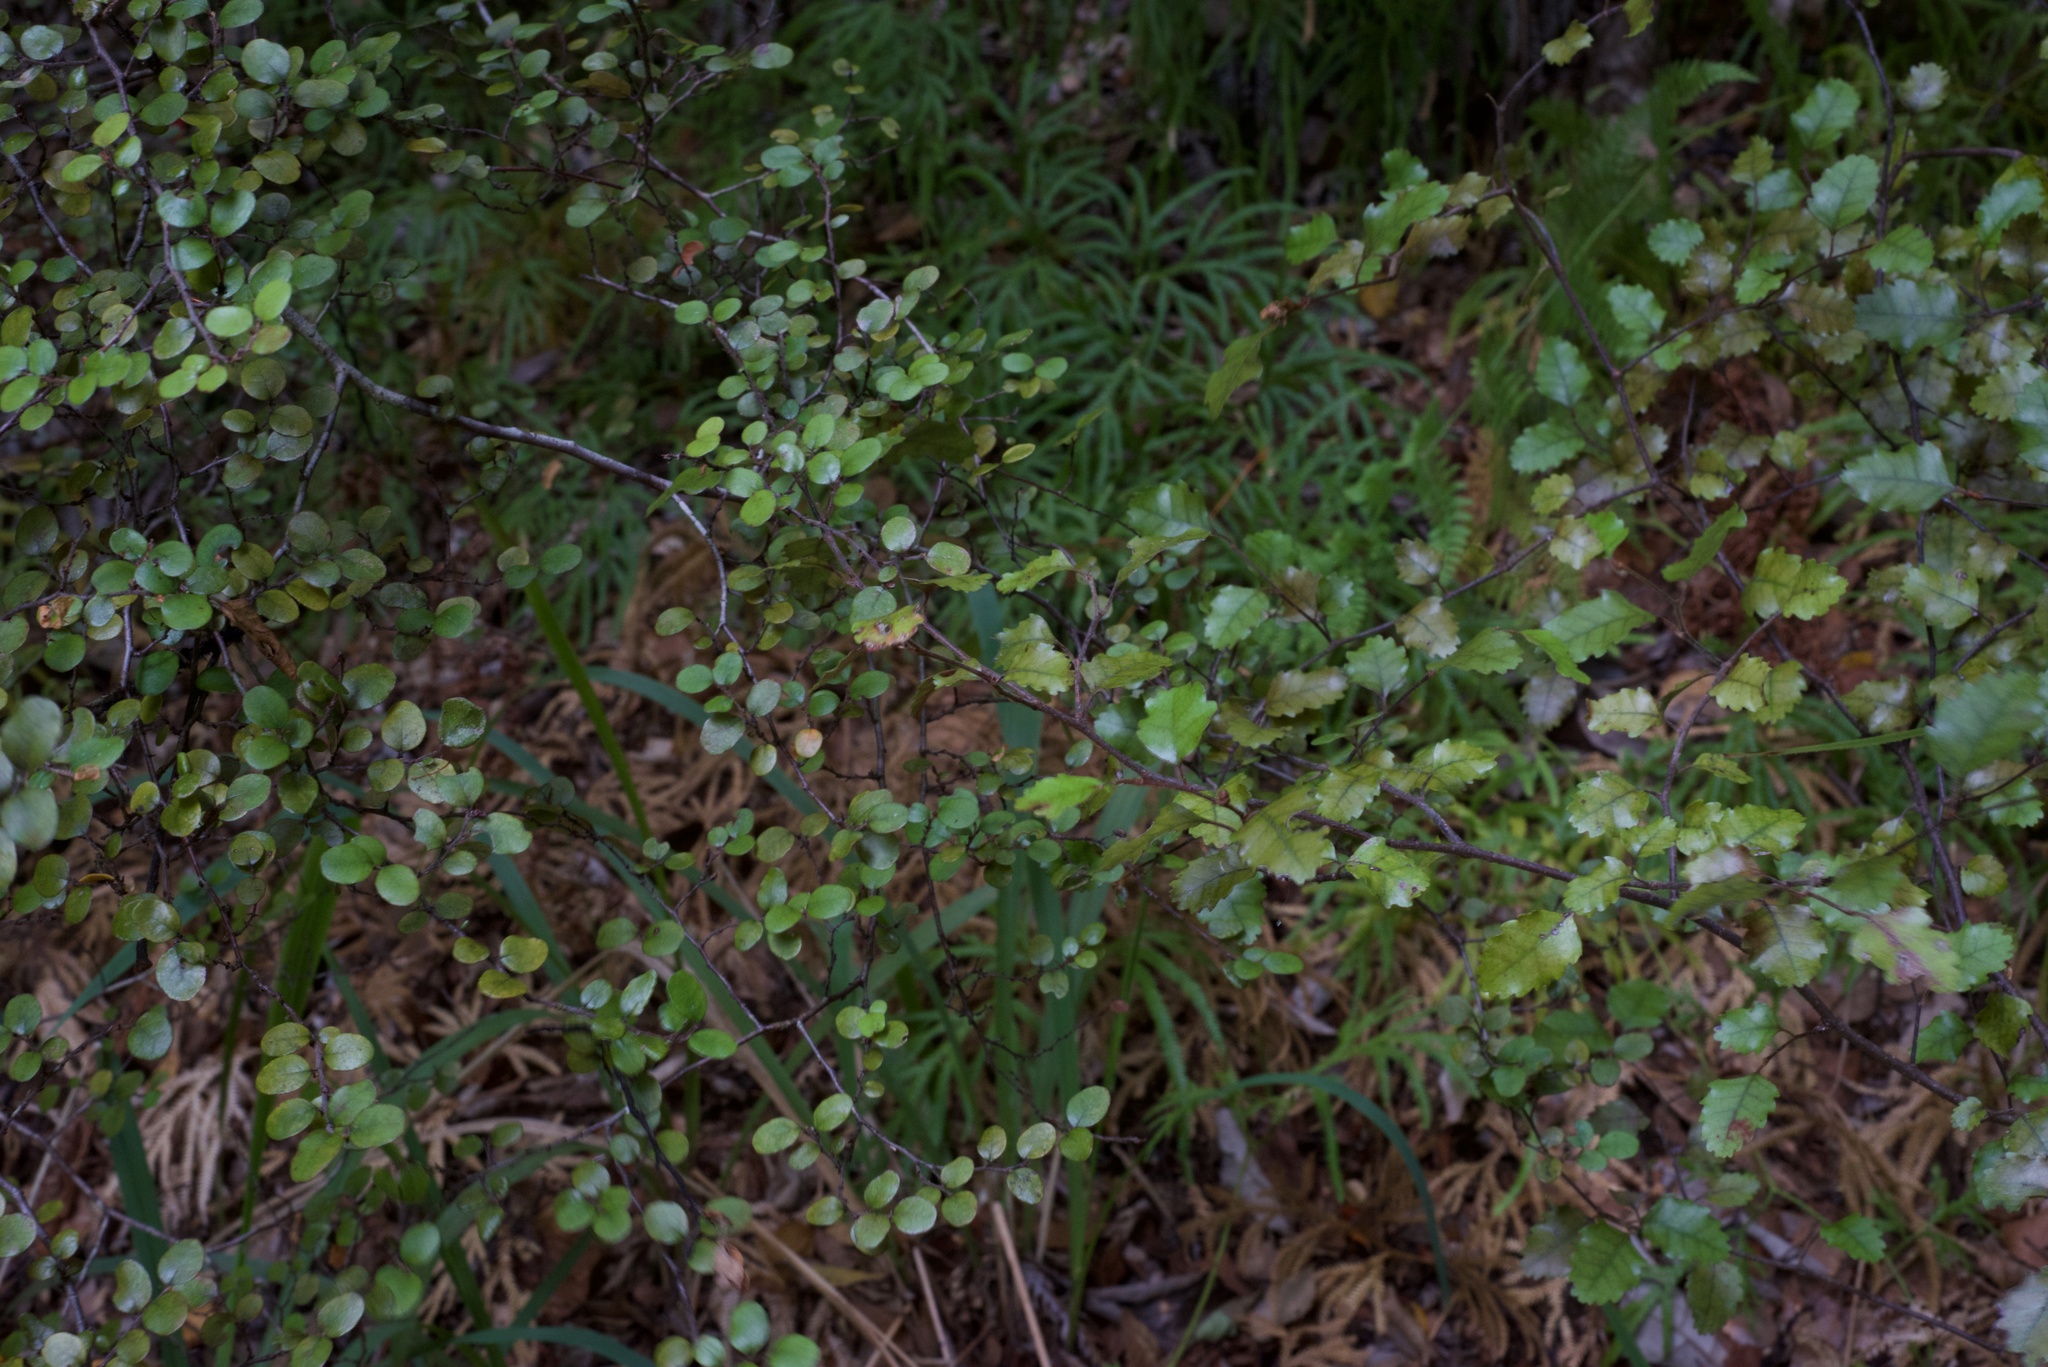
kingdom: Plantae
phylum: Tracheophyta
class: Magnoliopsida
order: Fagales
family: Nothofagaceae
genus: Nothofagus
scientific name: Nothofagus solandri
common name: Black beech
